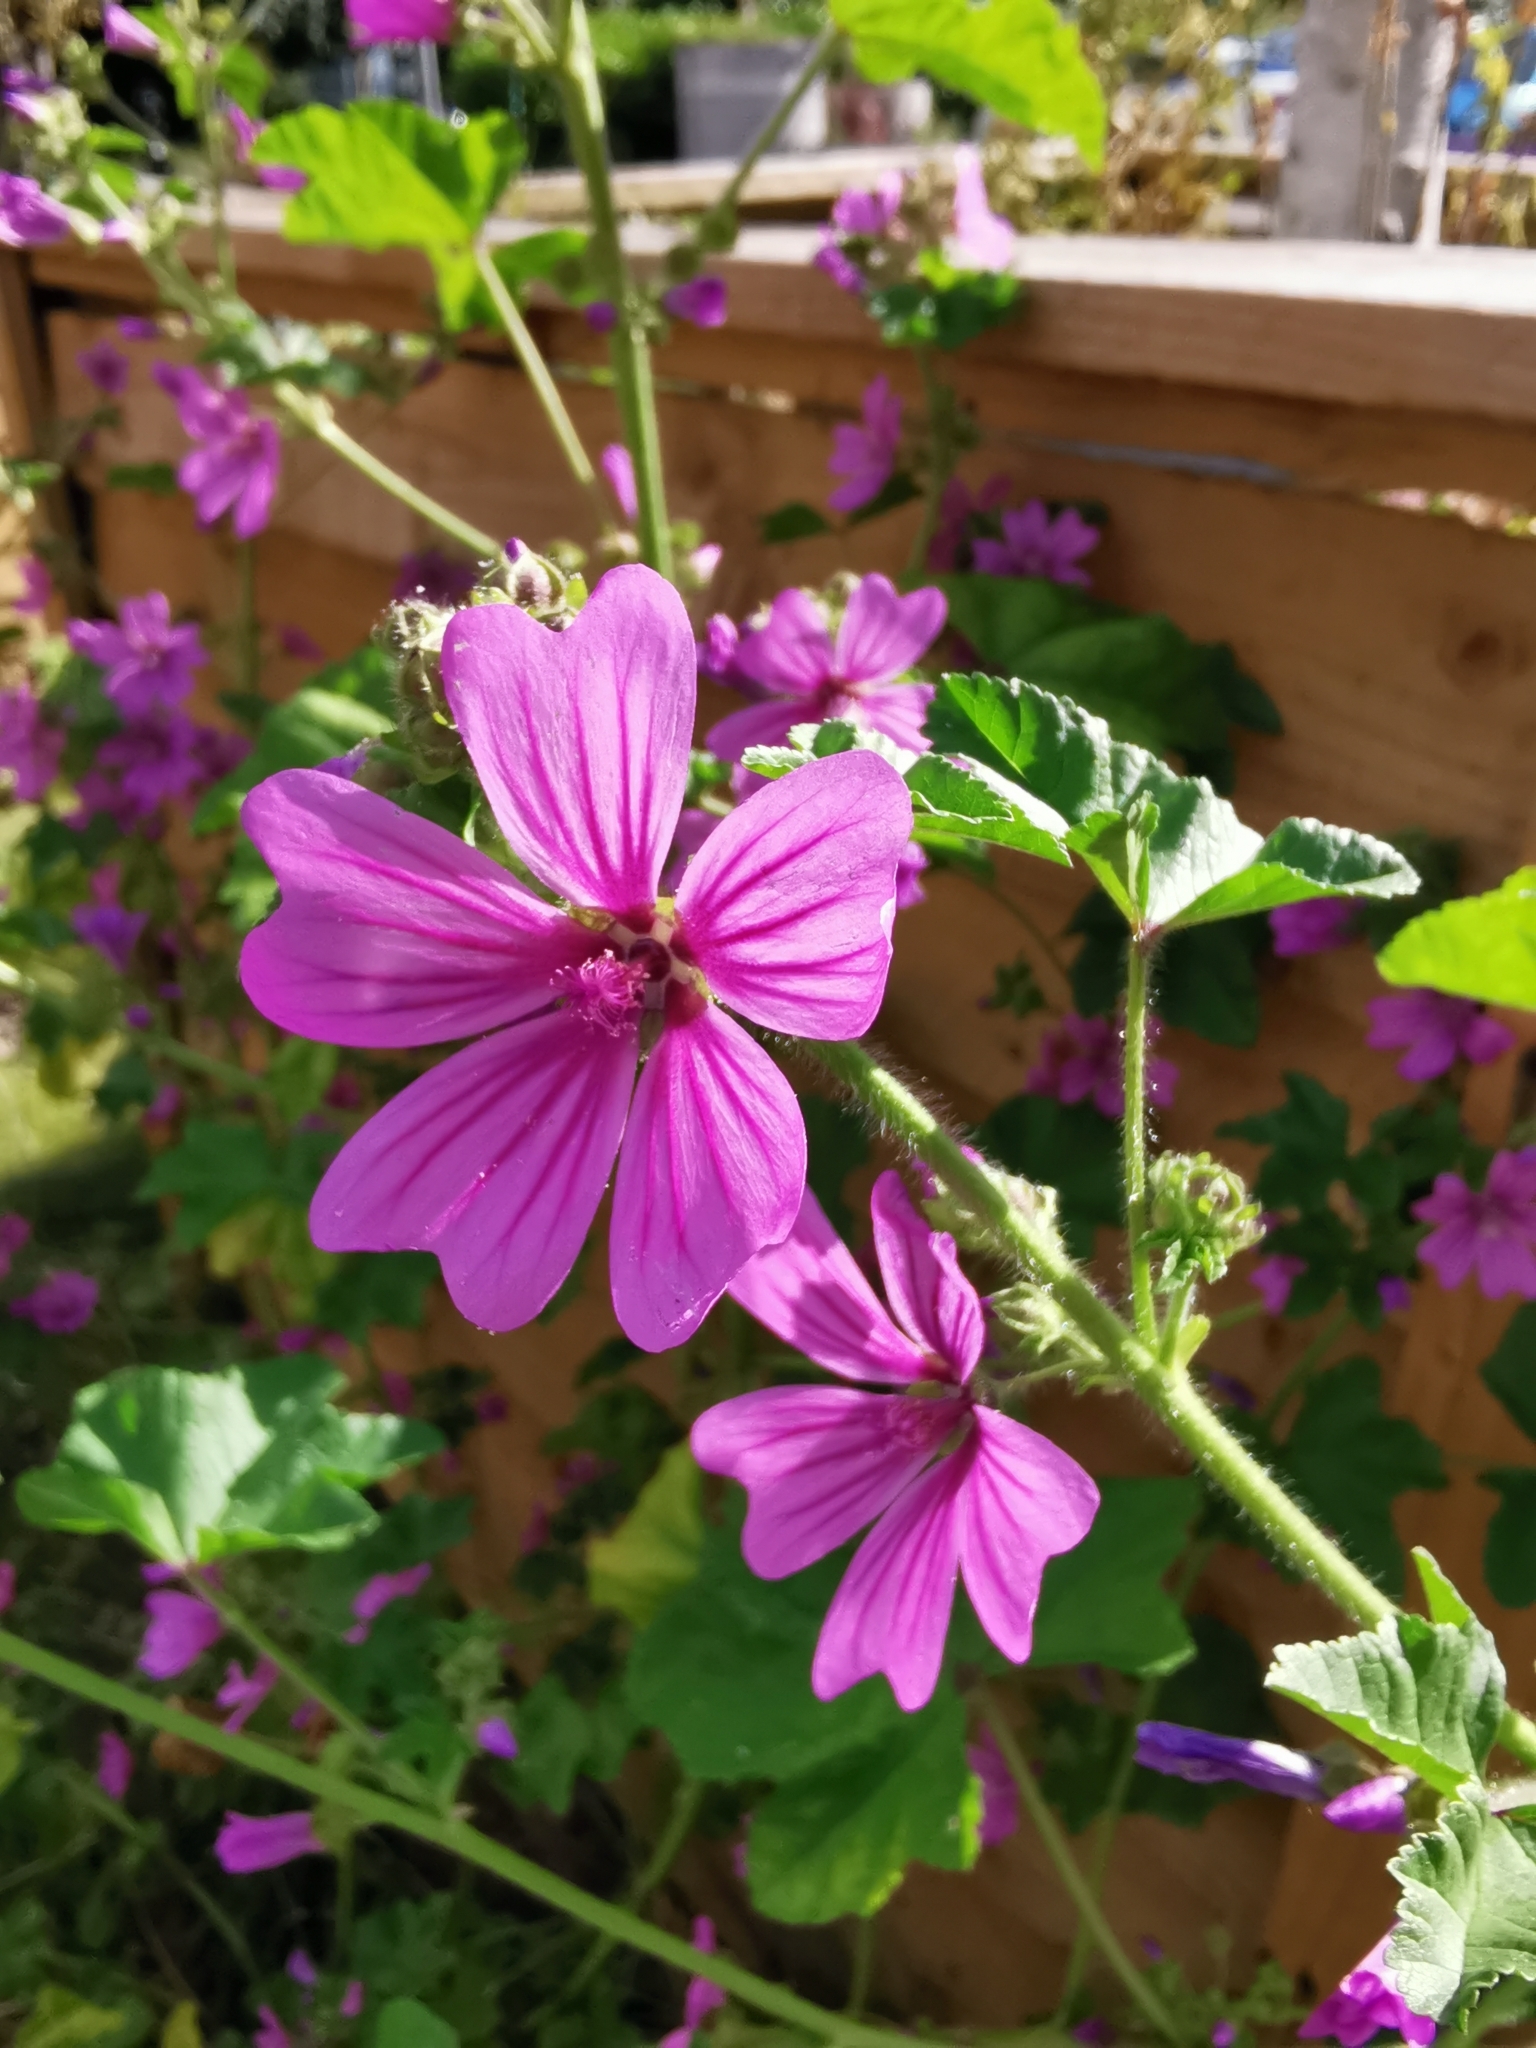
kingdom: Plantae
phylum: Tracheophyta
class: Magnoliopsida
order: Malvales
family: Malvaceae
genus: Malva
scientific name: Malva sylvestris
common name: Common mallow
